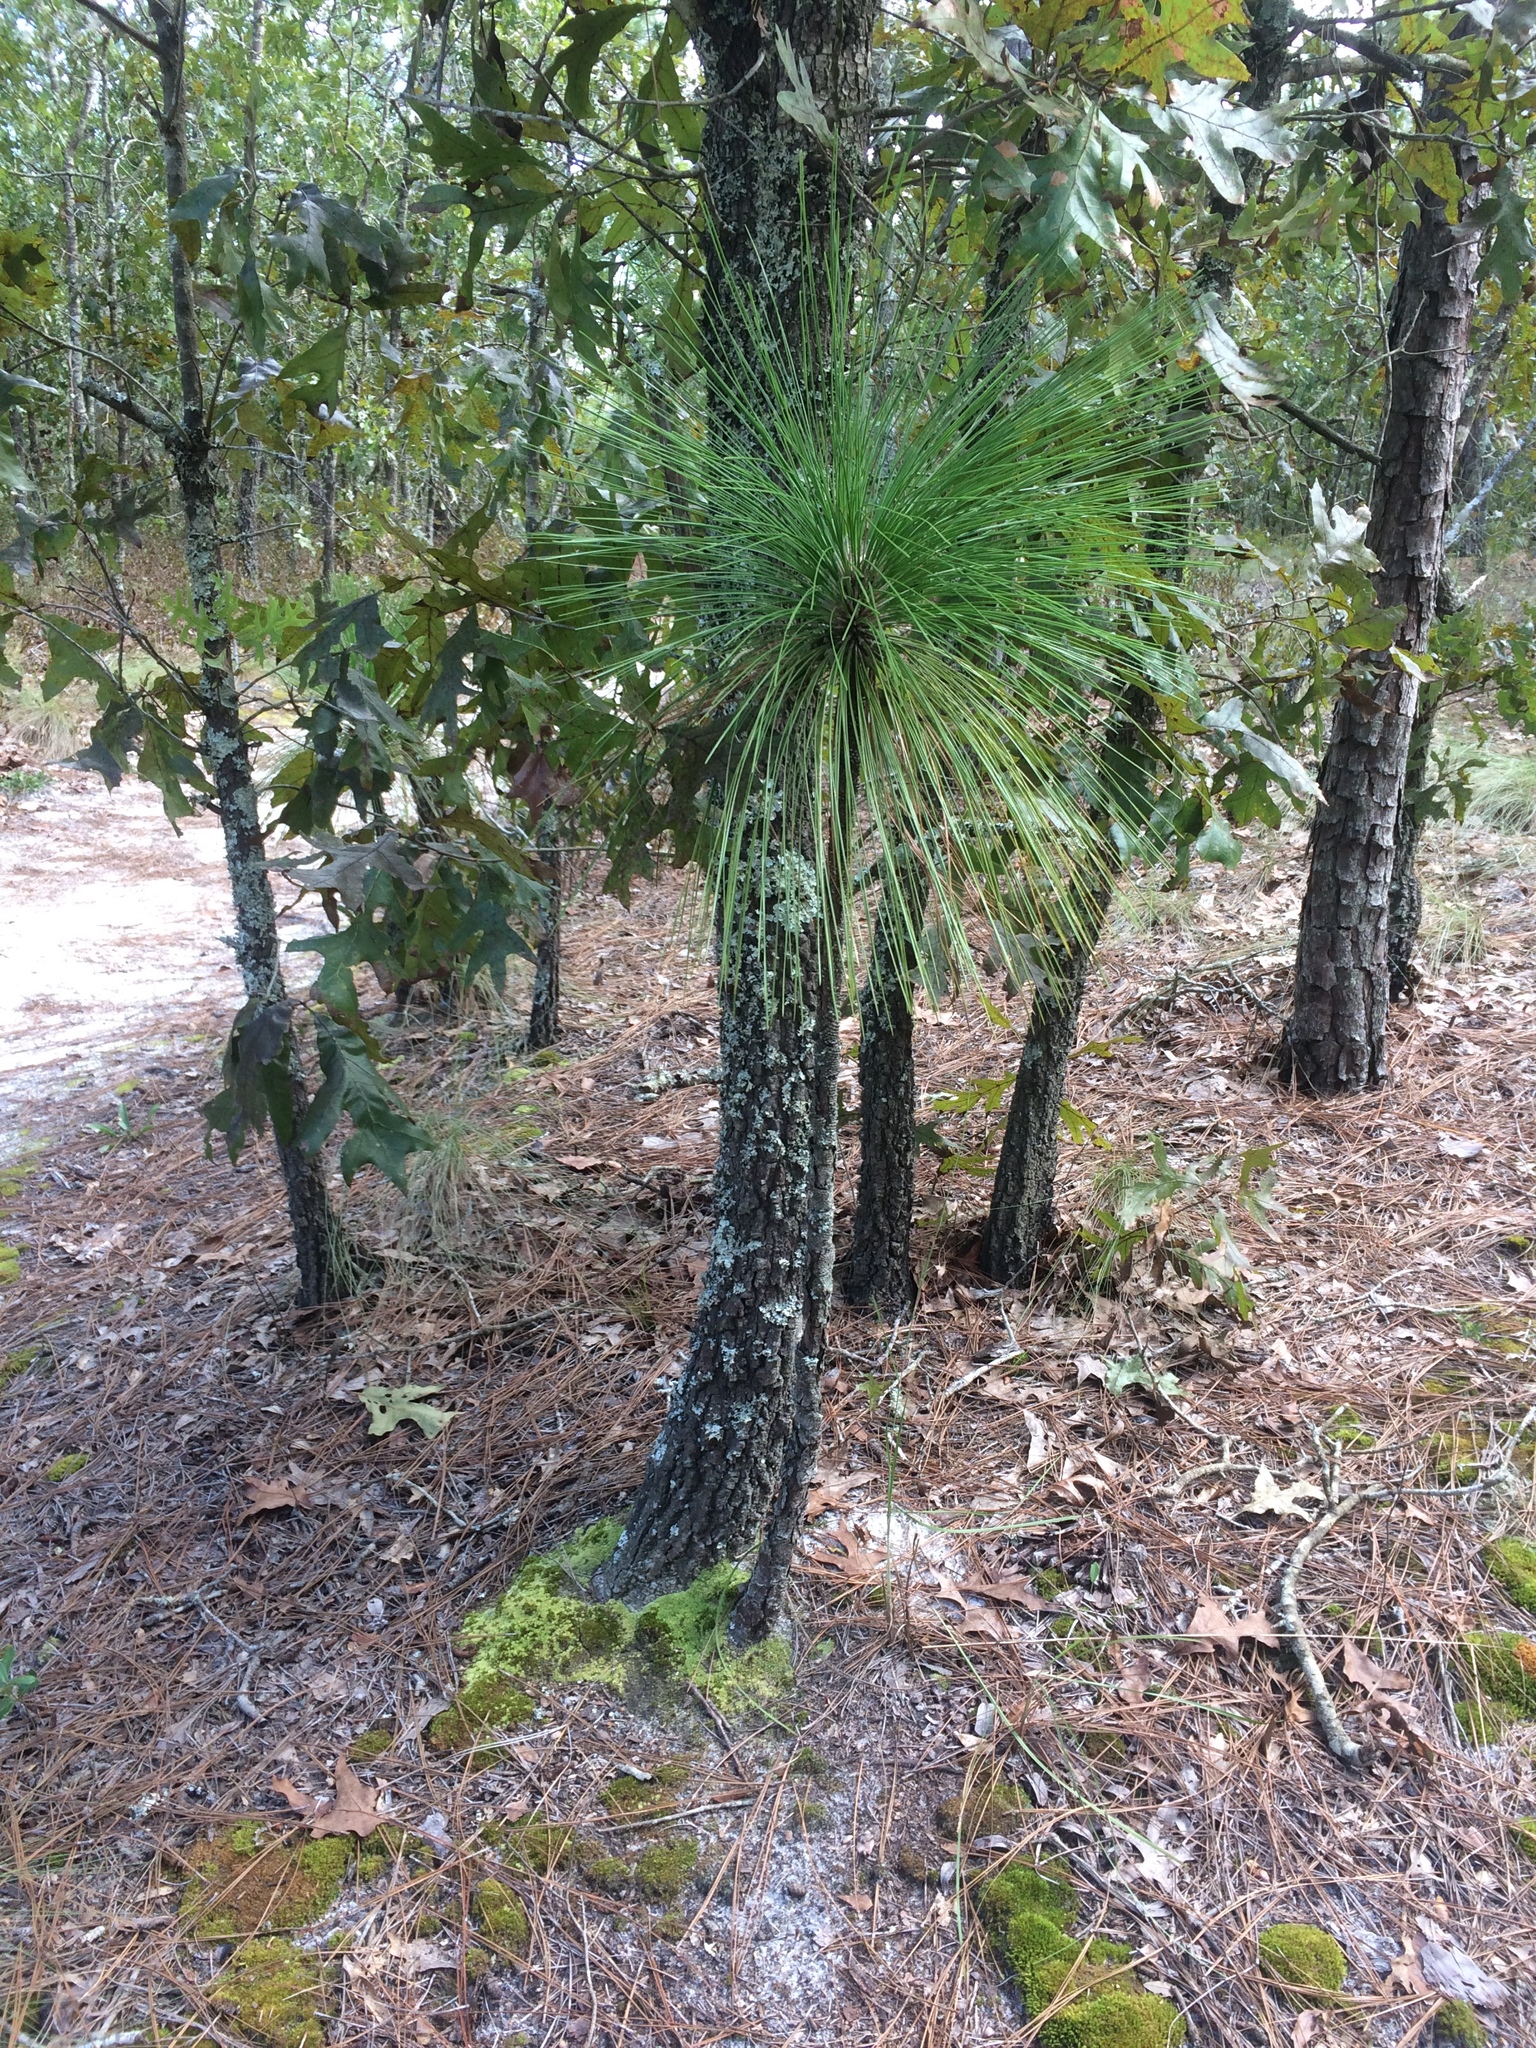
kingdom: Plantae
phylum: Tracheophyta
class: Pinopsida
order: Pinales
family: Pinaceae
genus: Pinus
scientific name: Pinus palustris
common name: Longleaf pine
